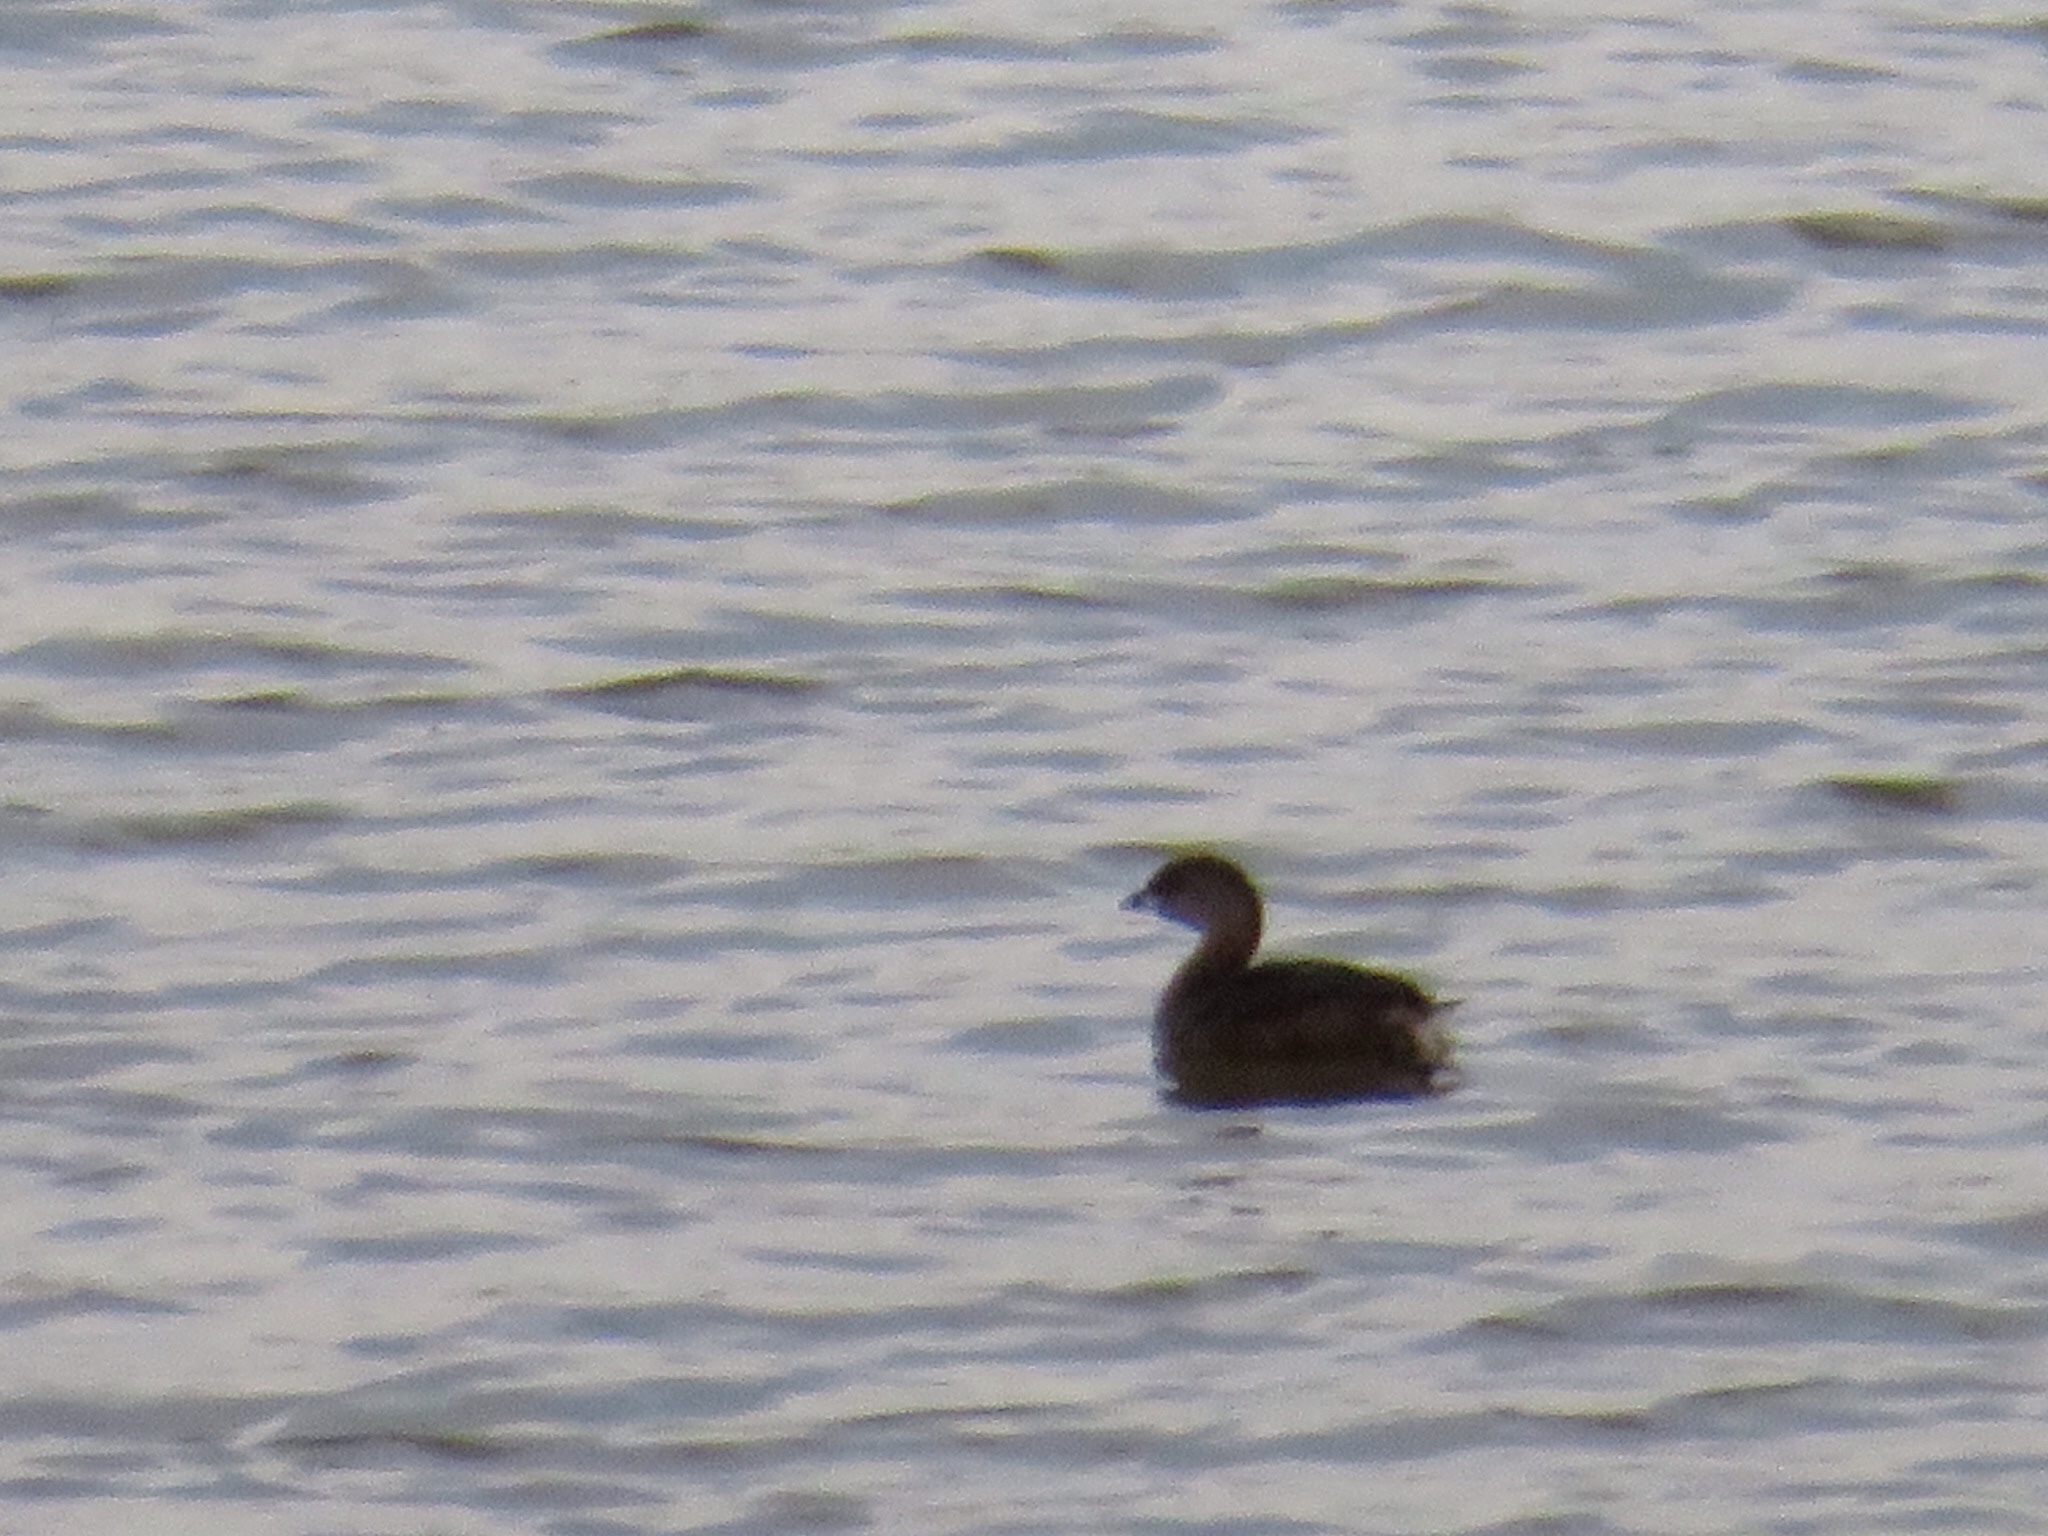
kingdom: Animalia
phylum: Chordata
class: Aves
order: Podicipediformes
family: Podicipedidae
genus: Podilymbus
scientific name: Podilymbus podiceps
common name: Pied-billed grebe
